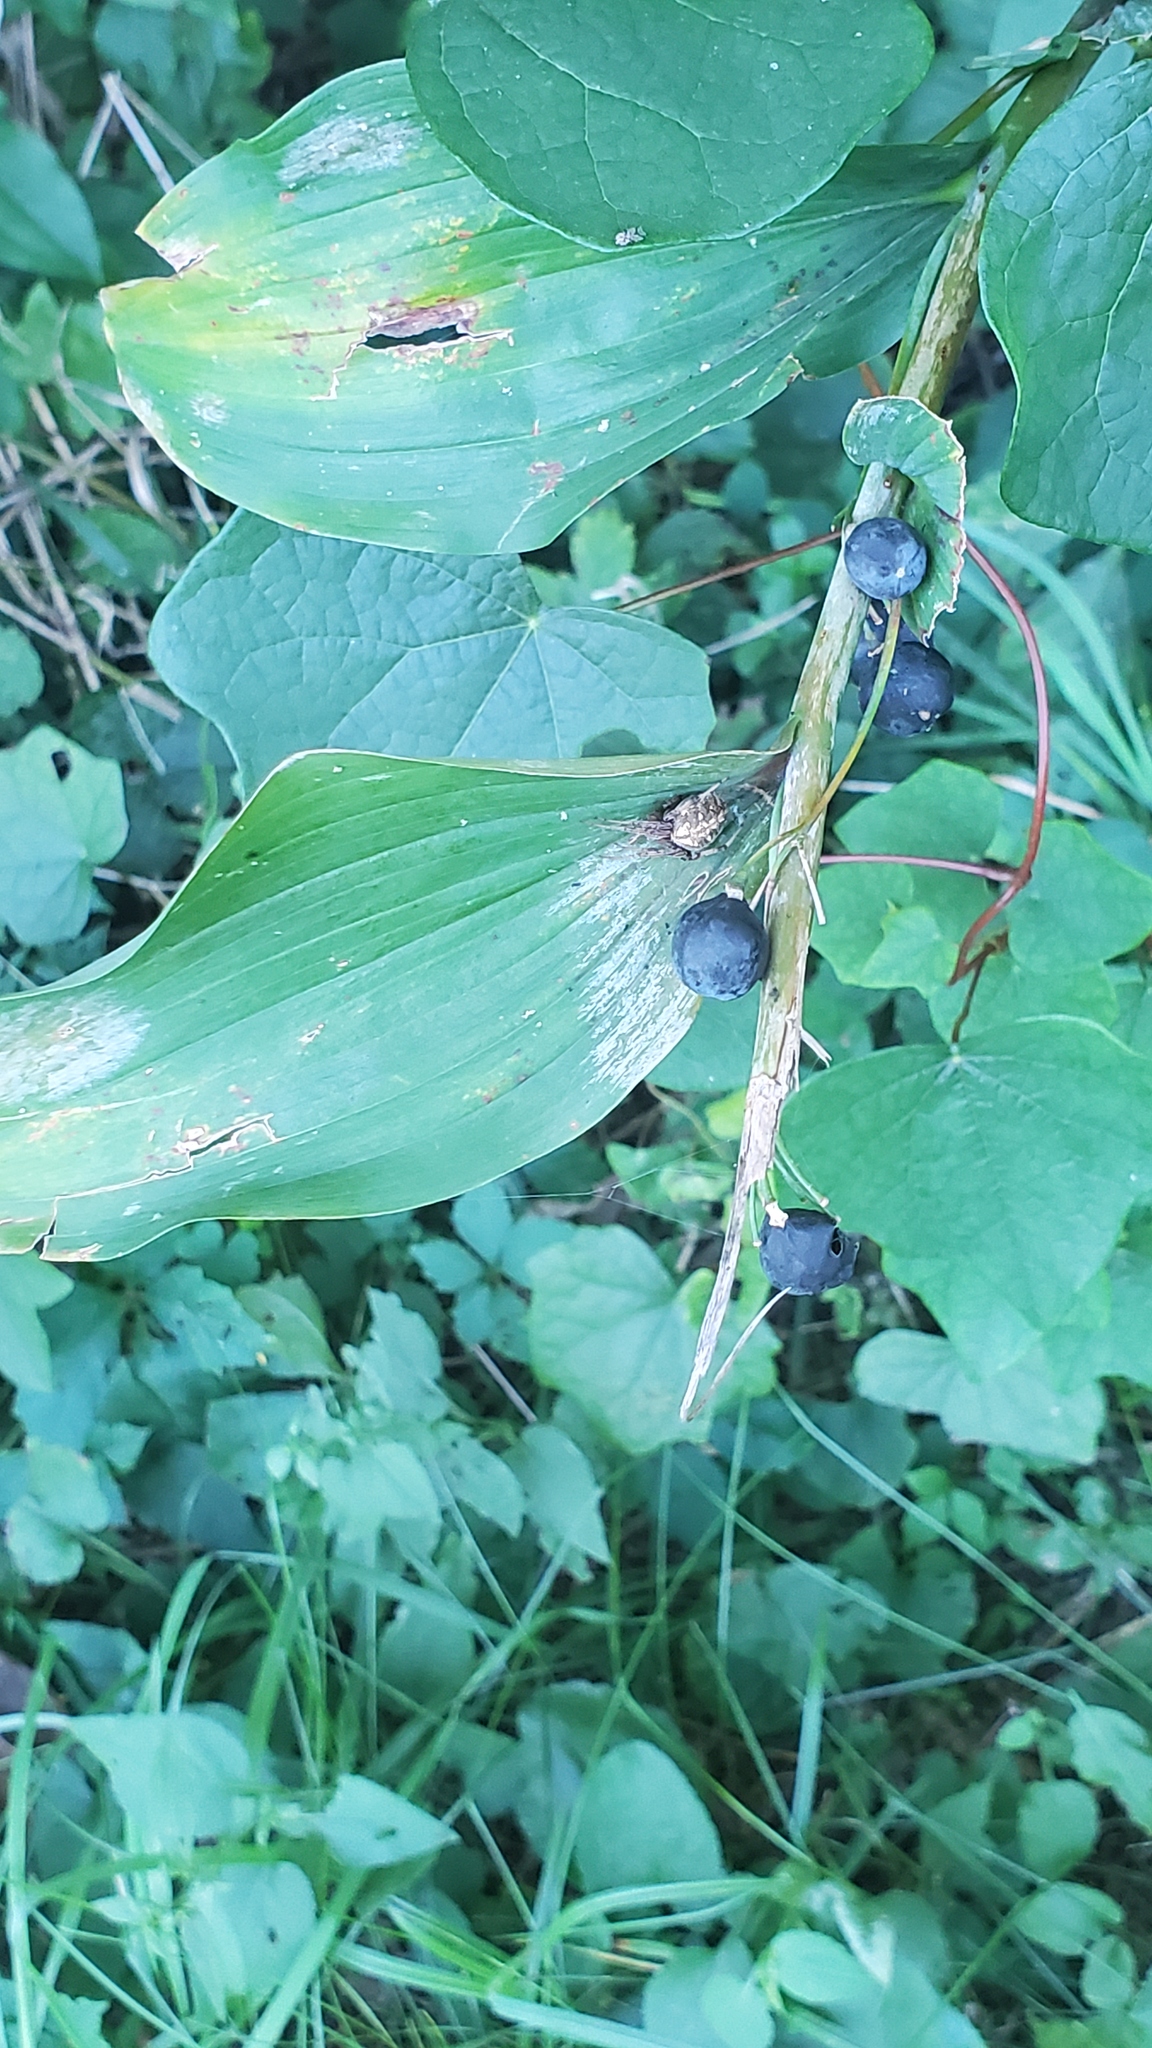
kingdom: Plantae
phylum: Tracheophyta
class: Liliopsida
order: Asparagales
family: Asparagaceae
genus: Polygonatum
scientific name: Polygonatum biflorum
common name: American solomon's-seal
